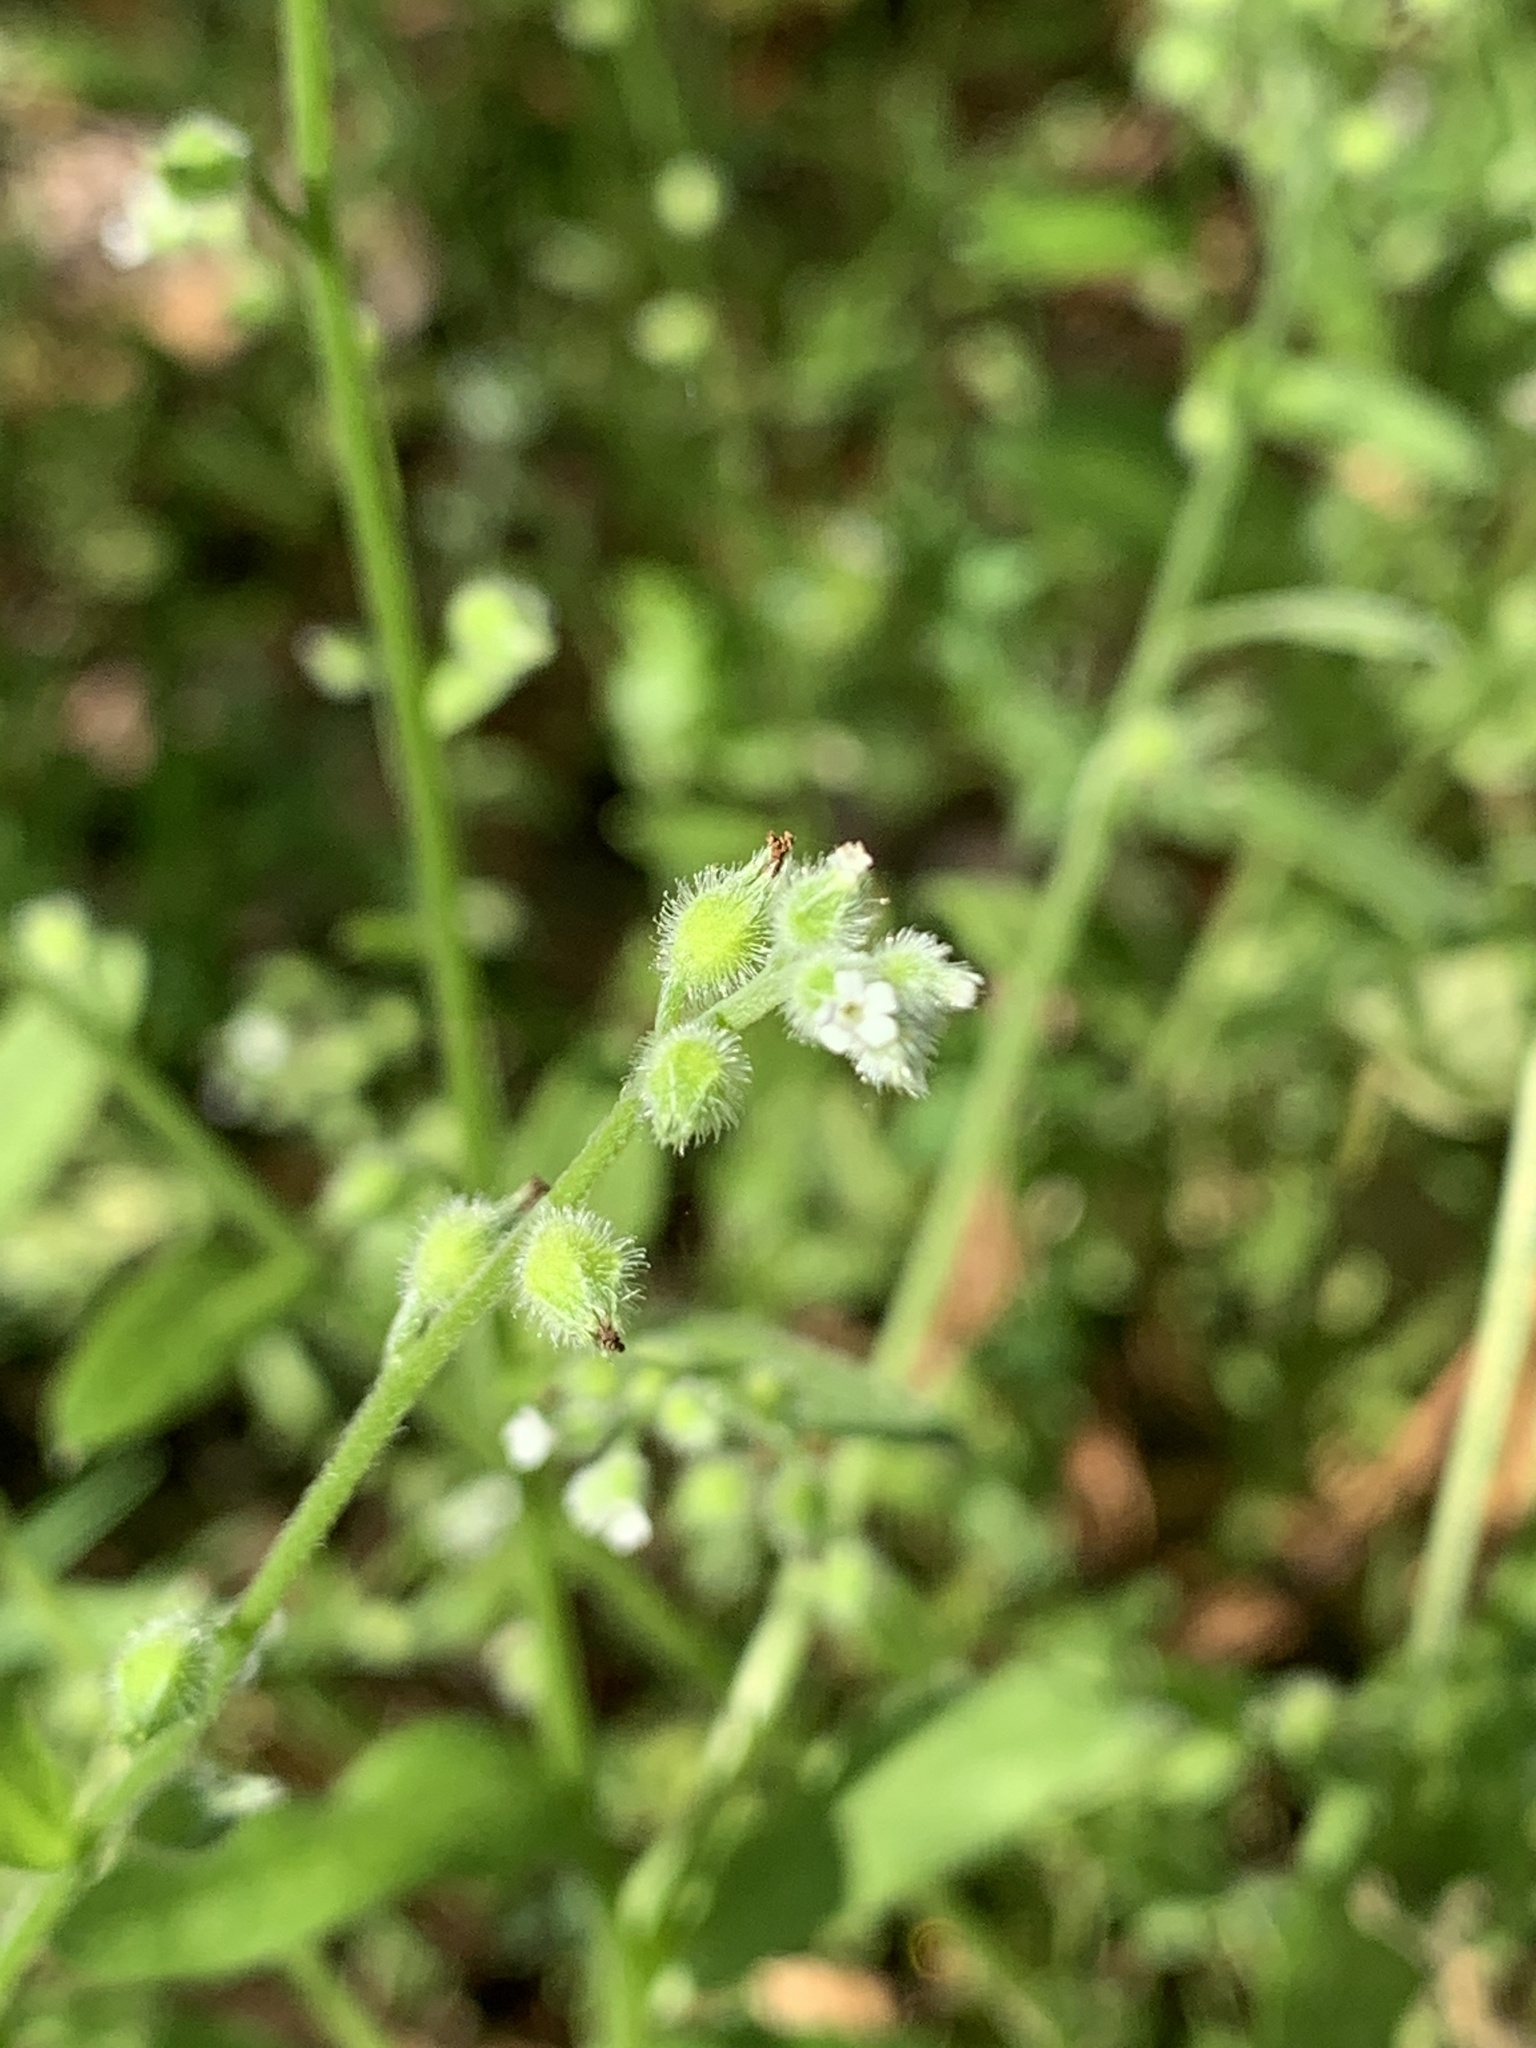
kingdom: Plantae
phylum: Tracheophyta
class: Magnoliopsida
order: Boraginales
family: Boraginaceae
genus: Myosotis
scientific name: Myosotis macrosperma
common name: Large-seed forget-me-not
